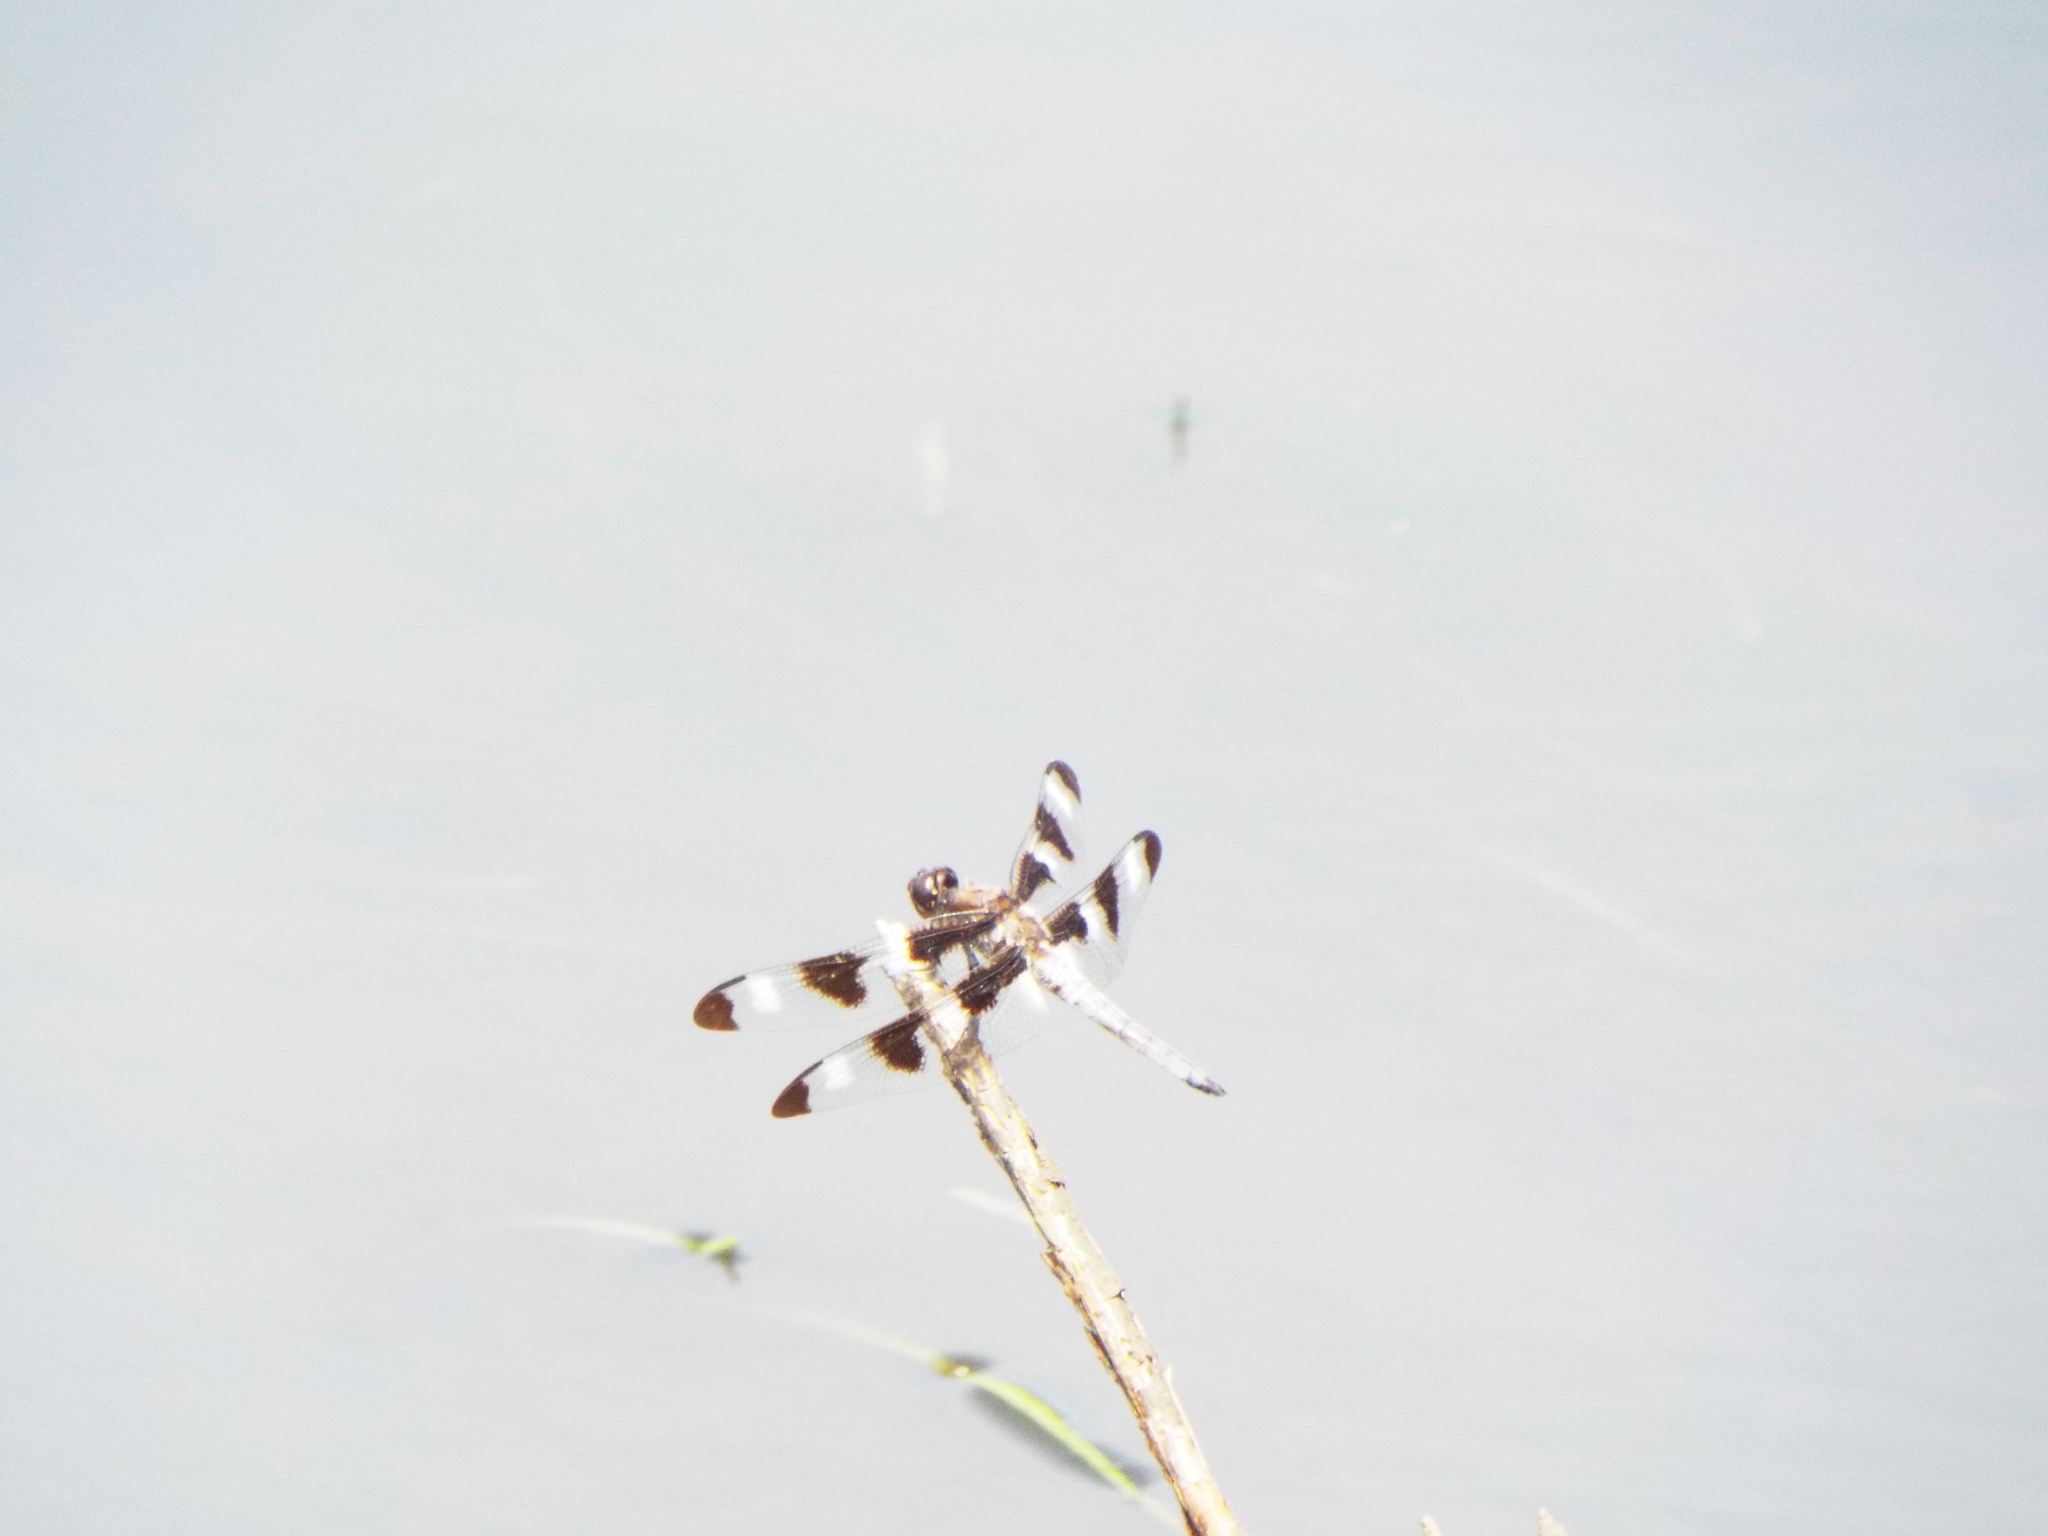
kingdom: Animalia
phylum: Arthropoda
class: Insecta
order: Odonata
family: Libellulidae
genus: Libellula
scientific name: Libellula pulchella
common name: Twelve-spotted skimmer
